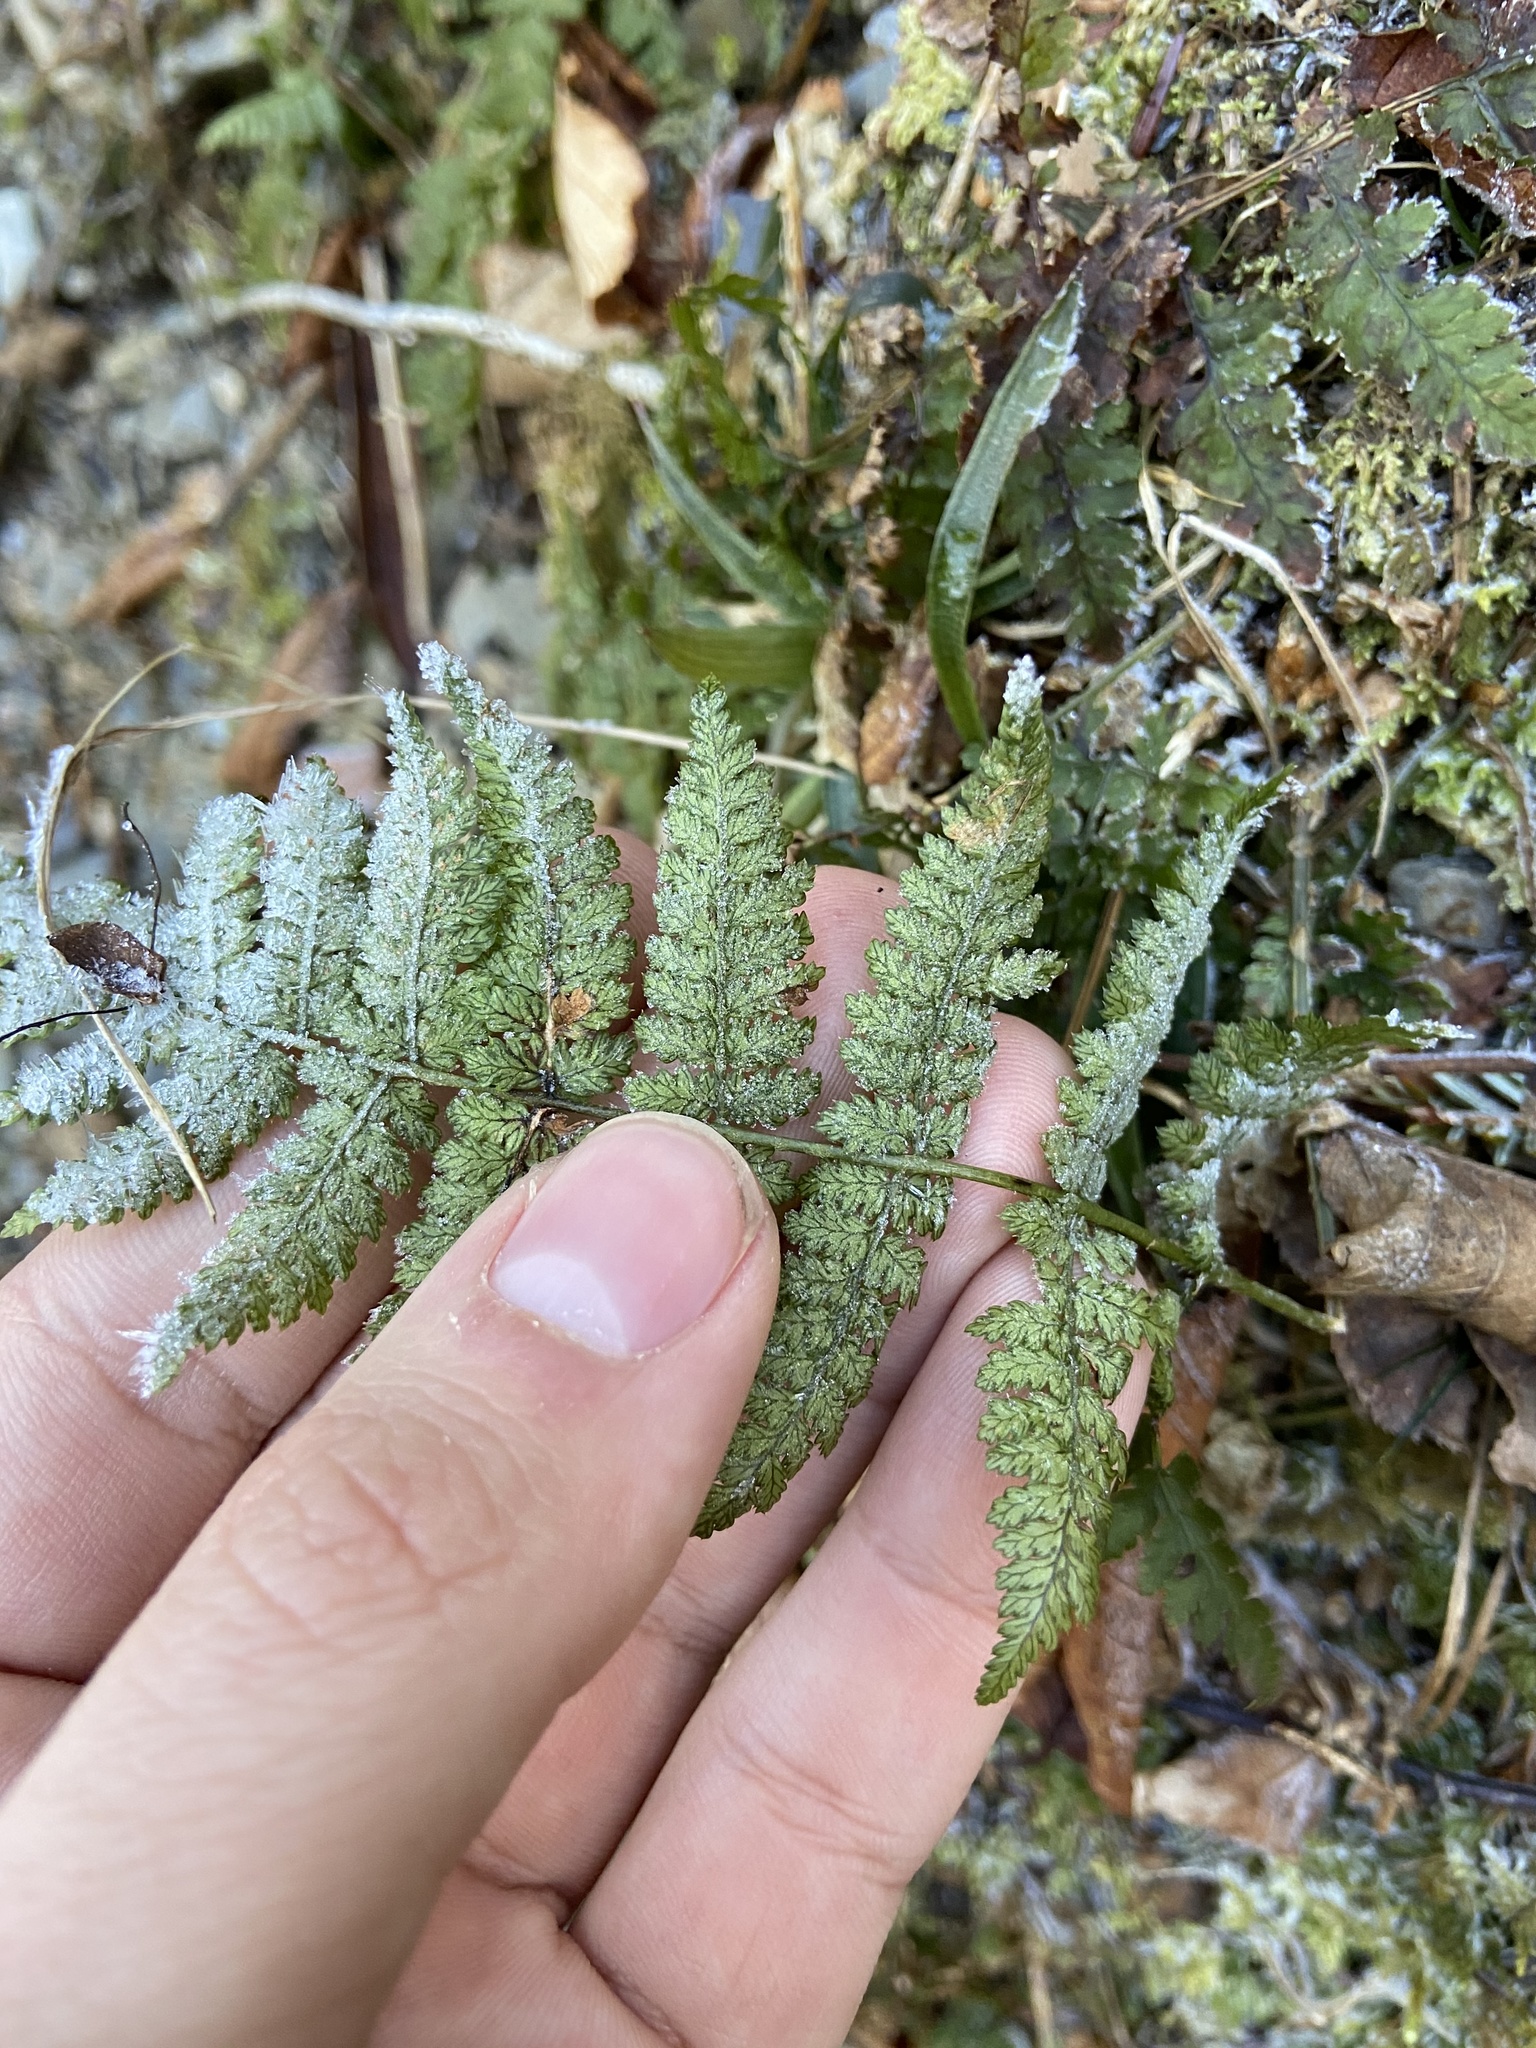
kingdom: Plantae
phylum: Tracheophyta
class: Polypodiopsida
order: Polypodiales
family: Dryopteridaceae
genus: Dryopteris
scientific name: Dryopteris intermedia
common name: Evergreen wood fern
